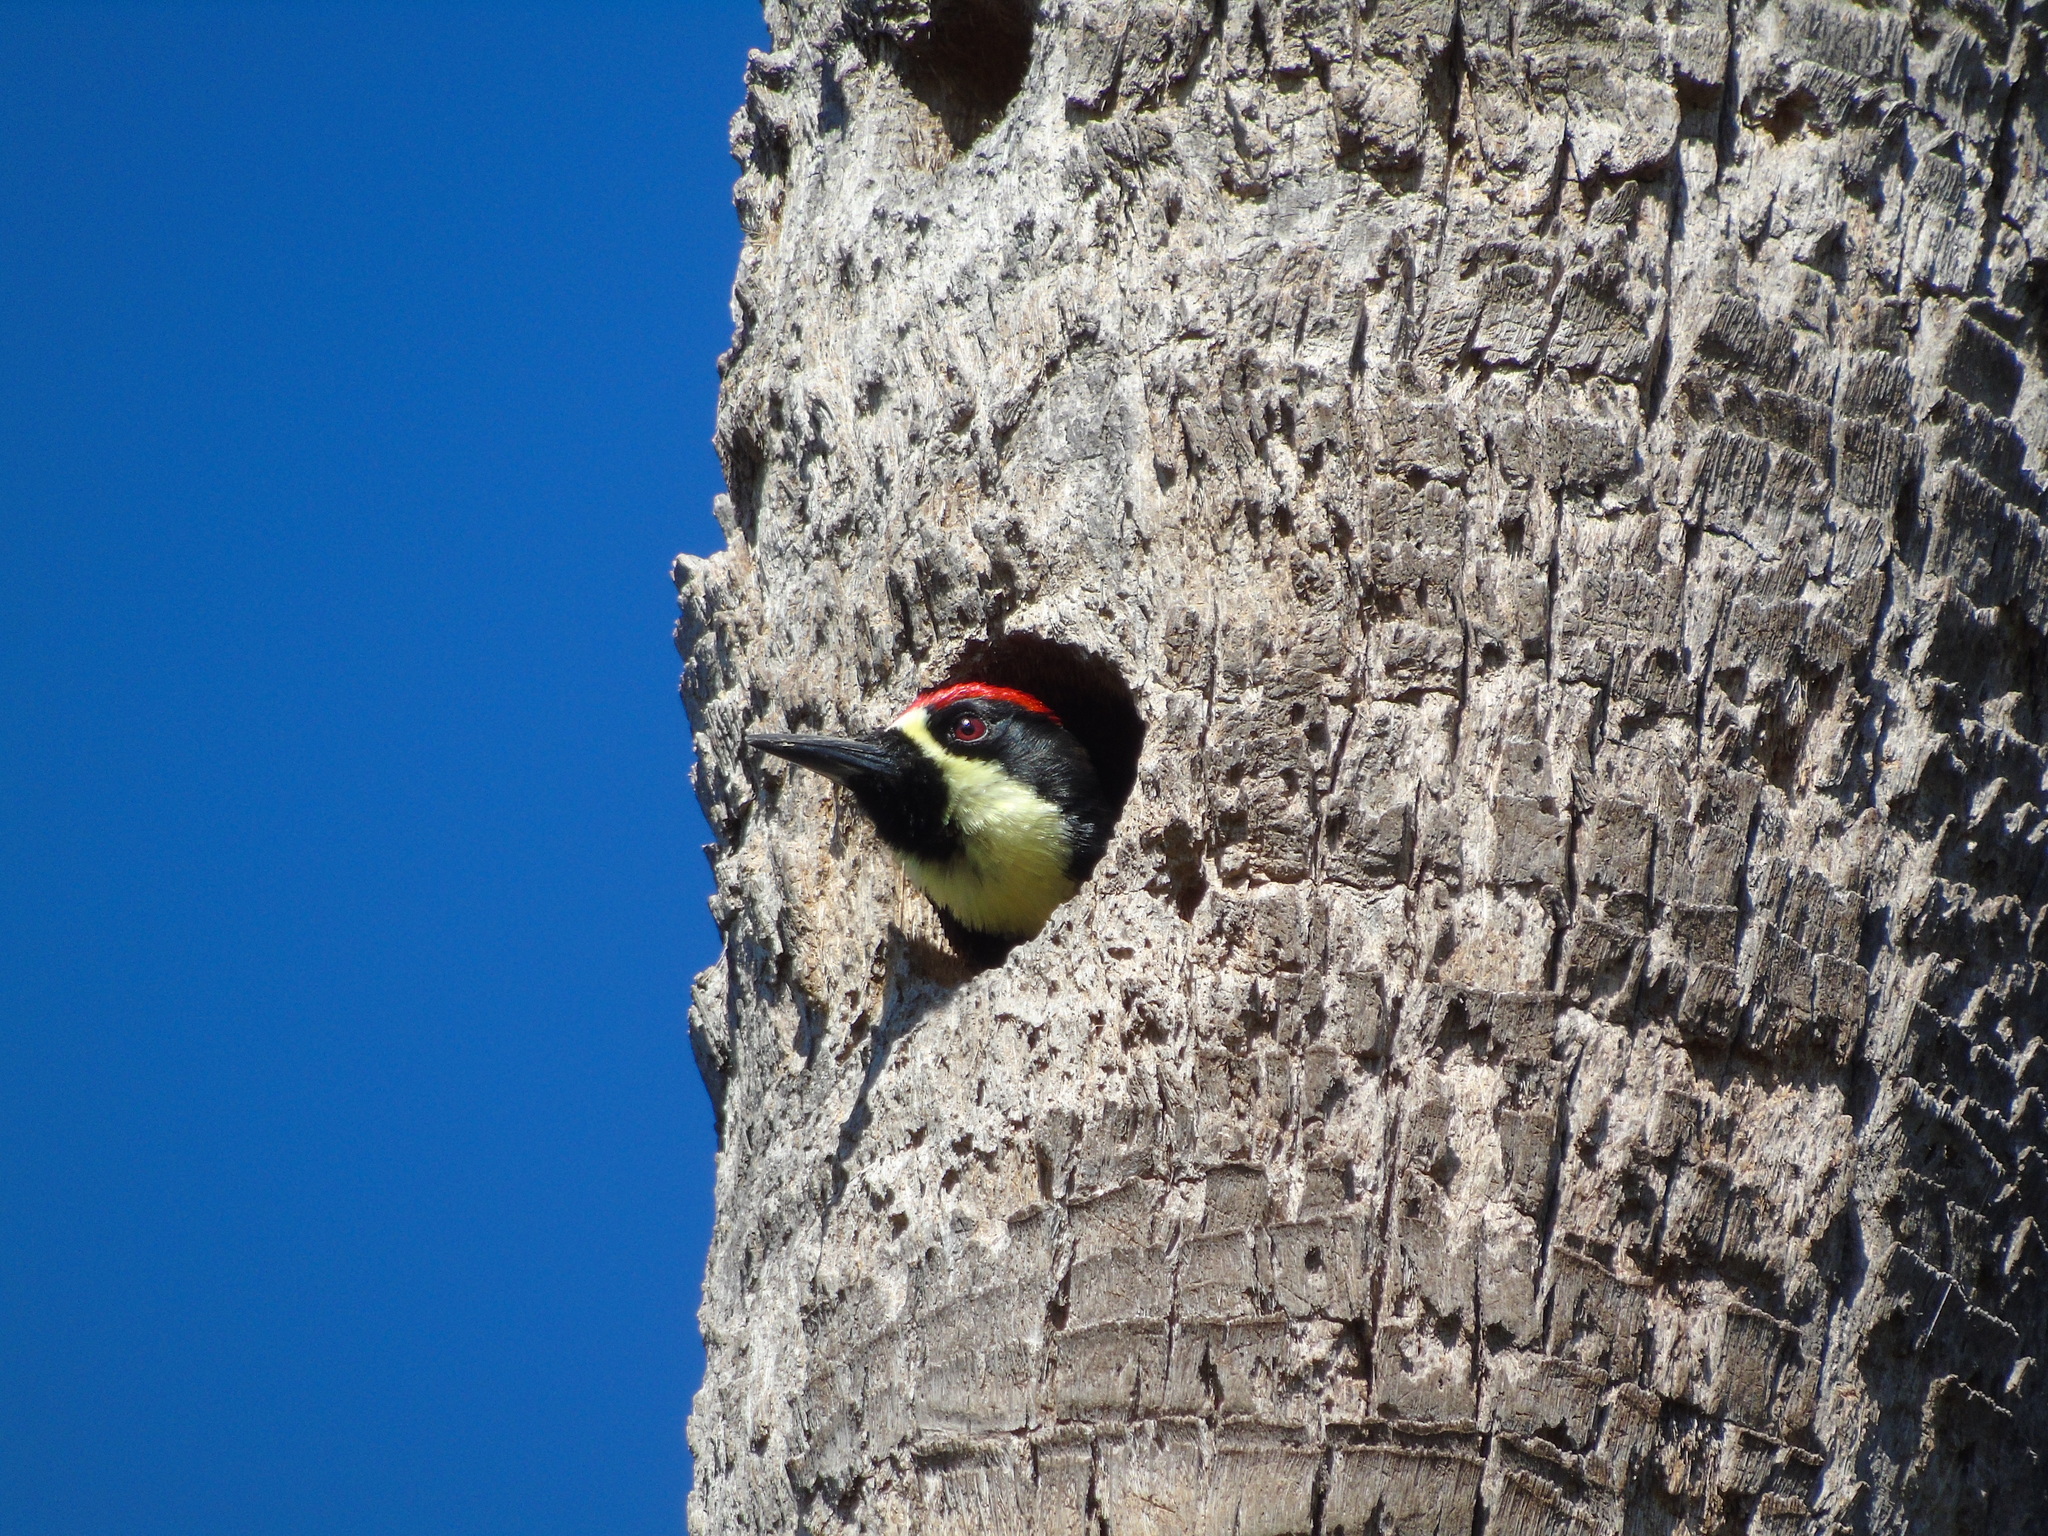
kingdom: Animalia
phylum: Chordata
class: Aves
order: Piciformes
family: Picidae
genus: Melanerpes
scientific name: Melanerpes formicivorus
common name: Acorn woodpecker
